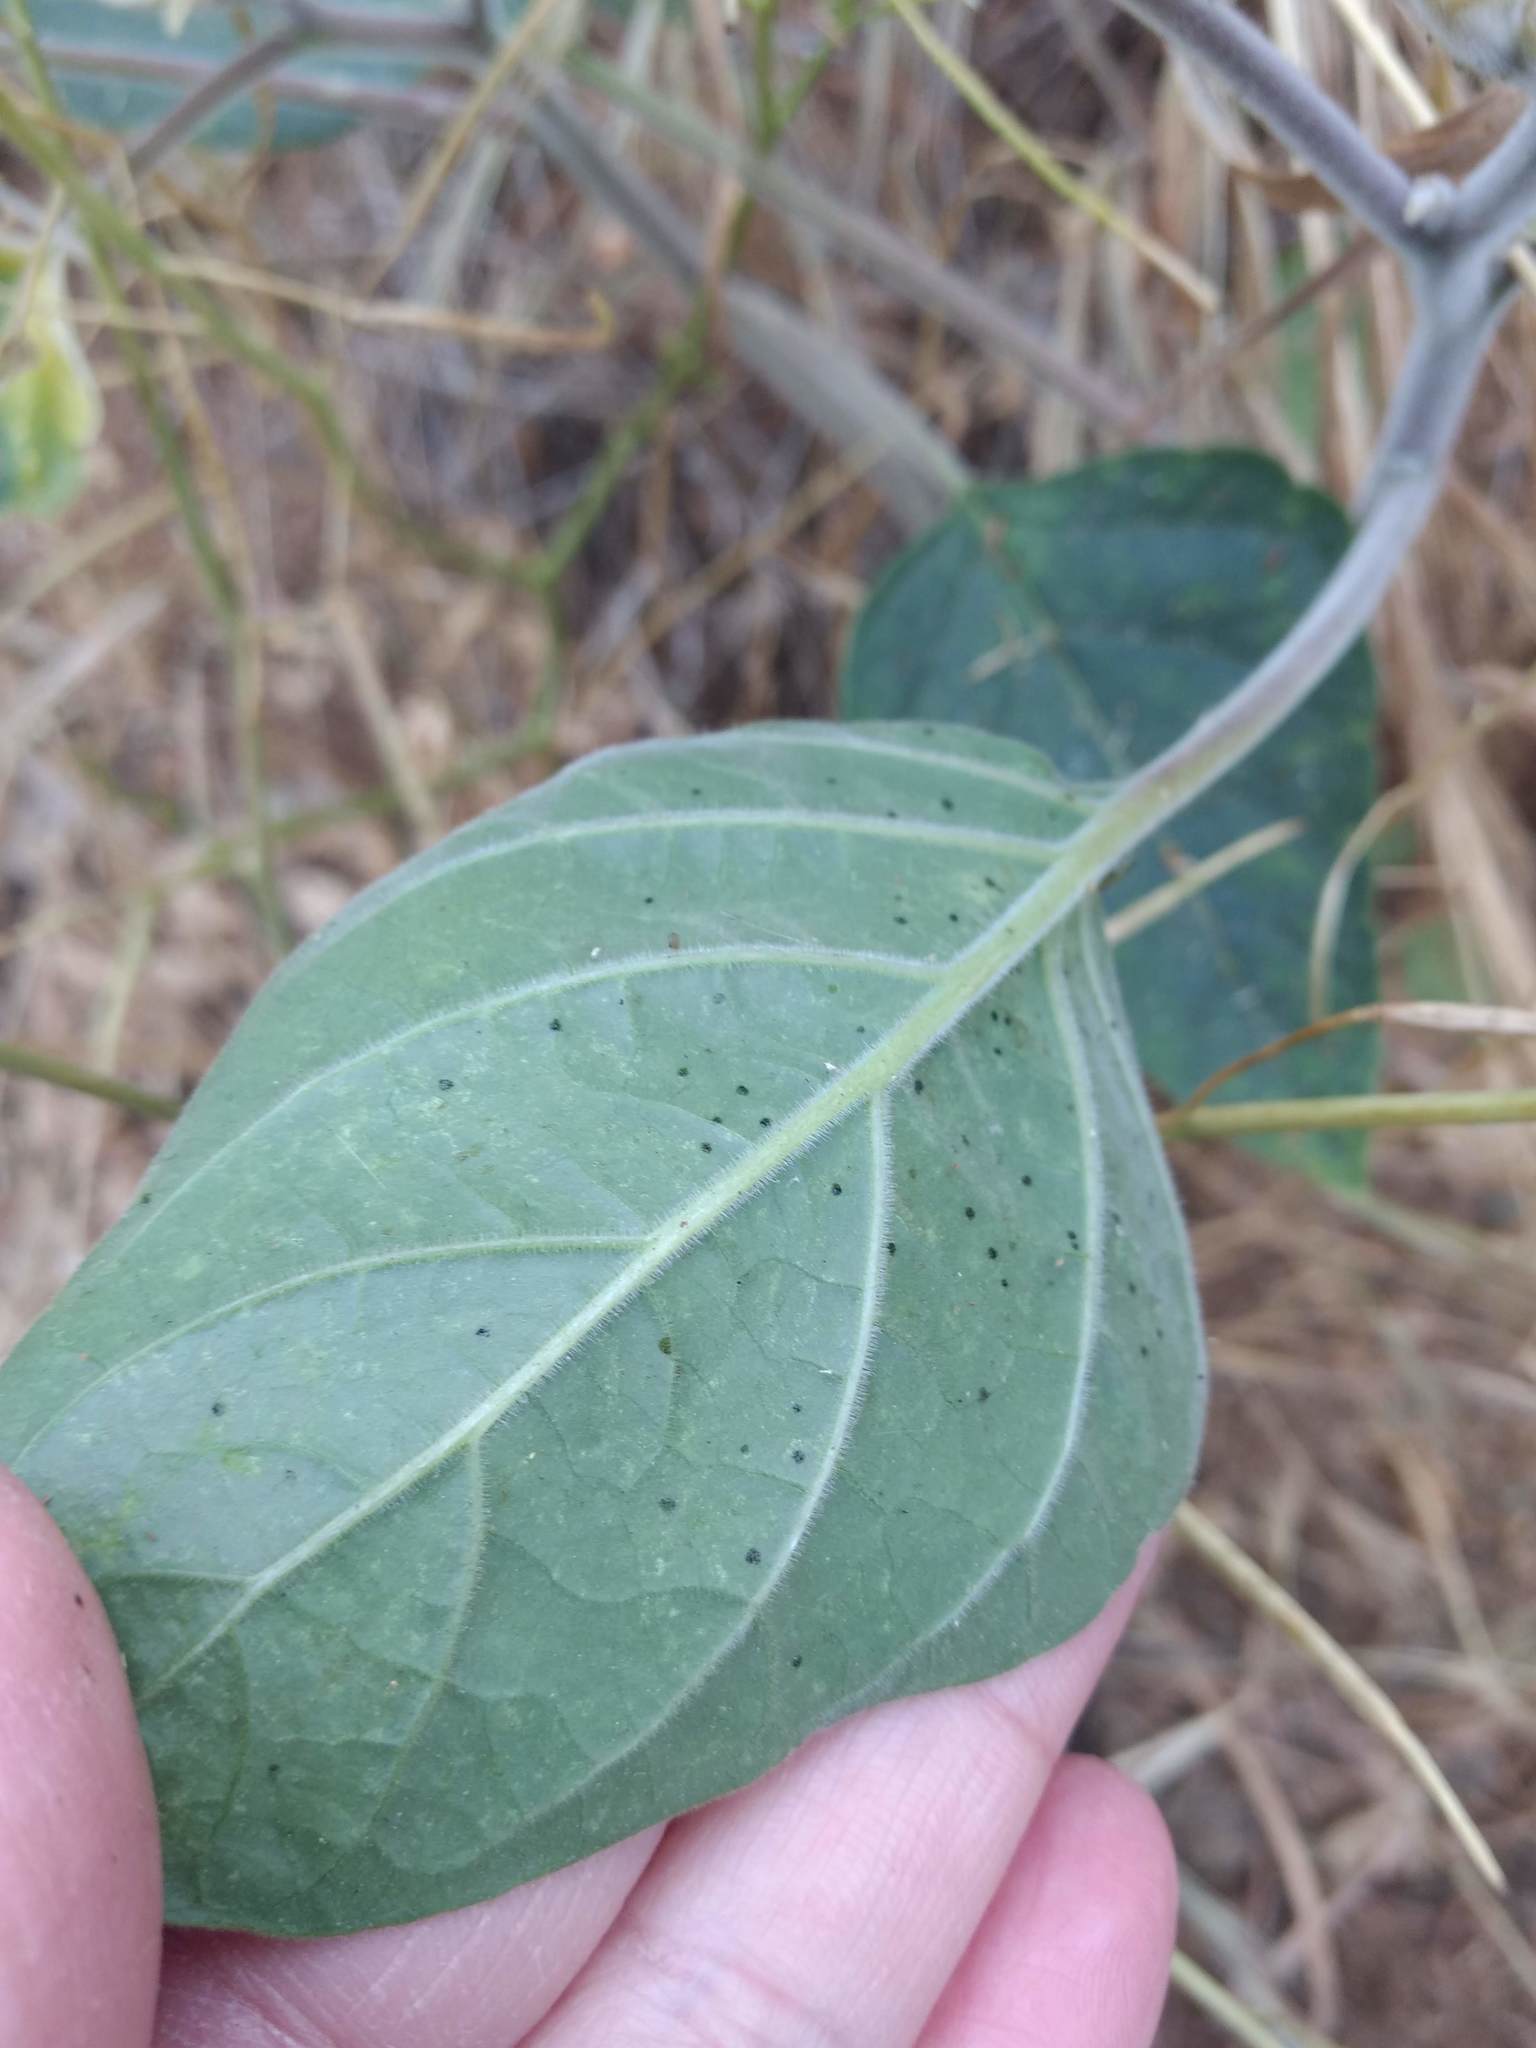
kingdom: Plantae
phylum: Tracheophyta
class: Magnoliopsida
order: Solanales
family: Solanaceae
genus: Datura
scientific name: Datura wrightii
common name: Sacred thorn-apple
